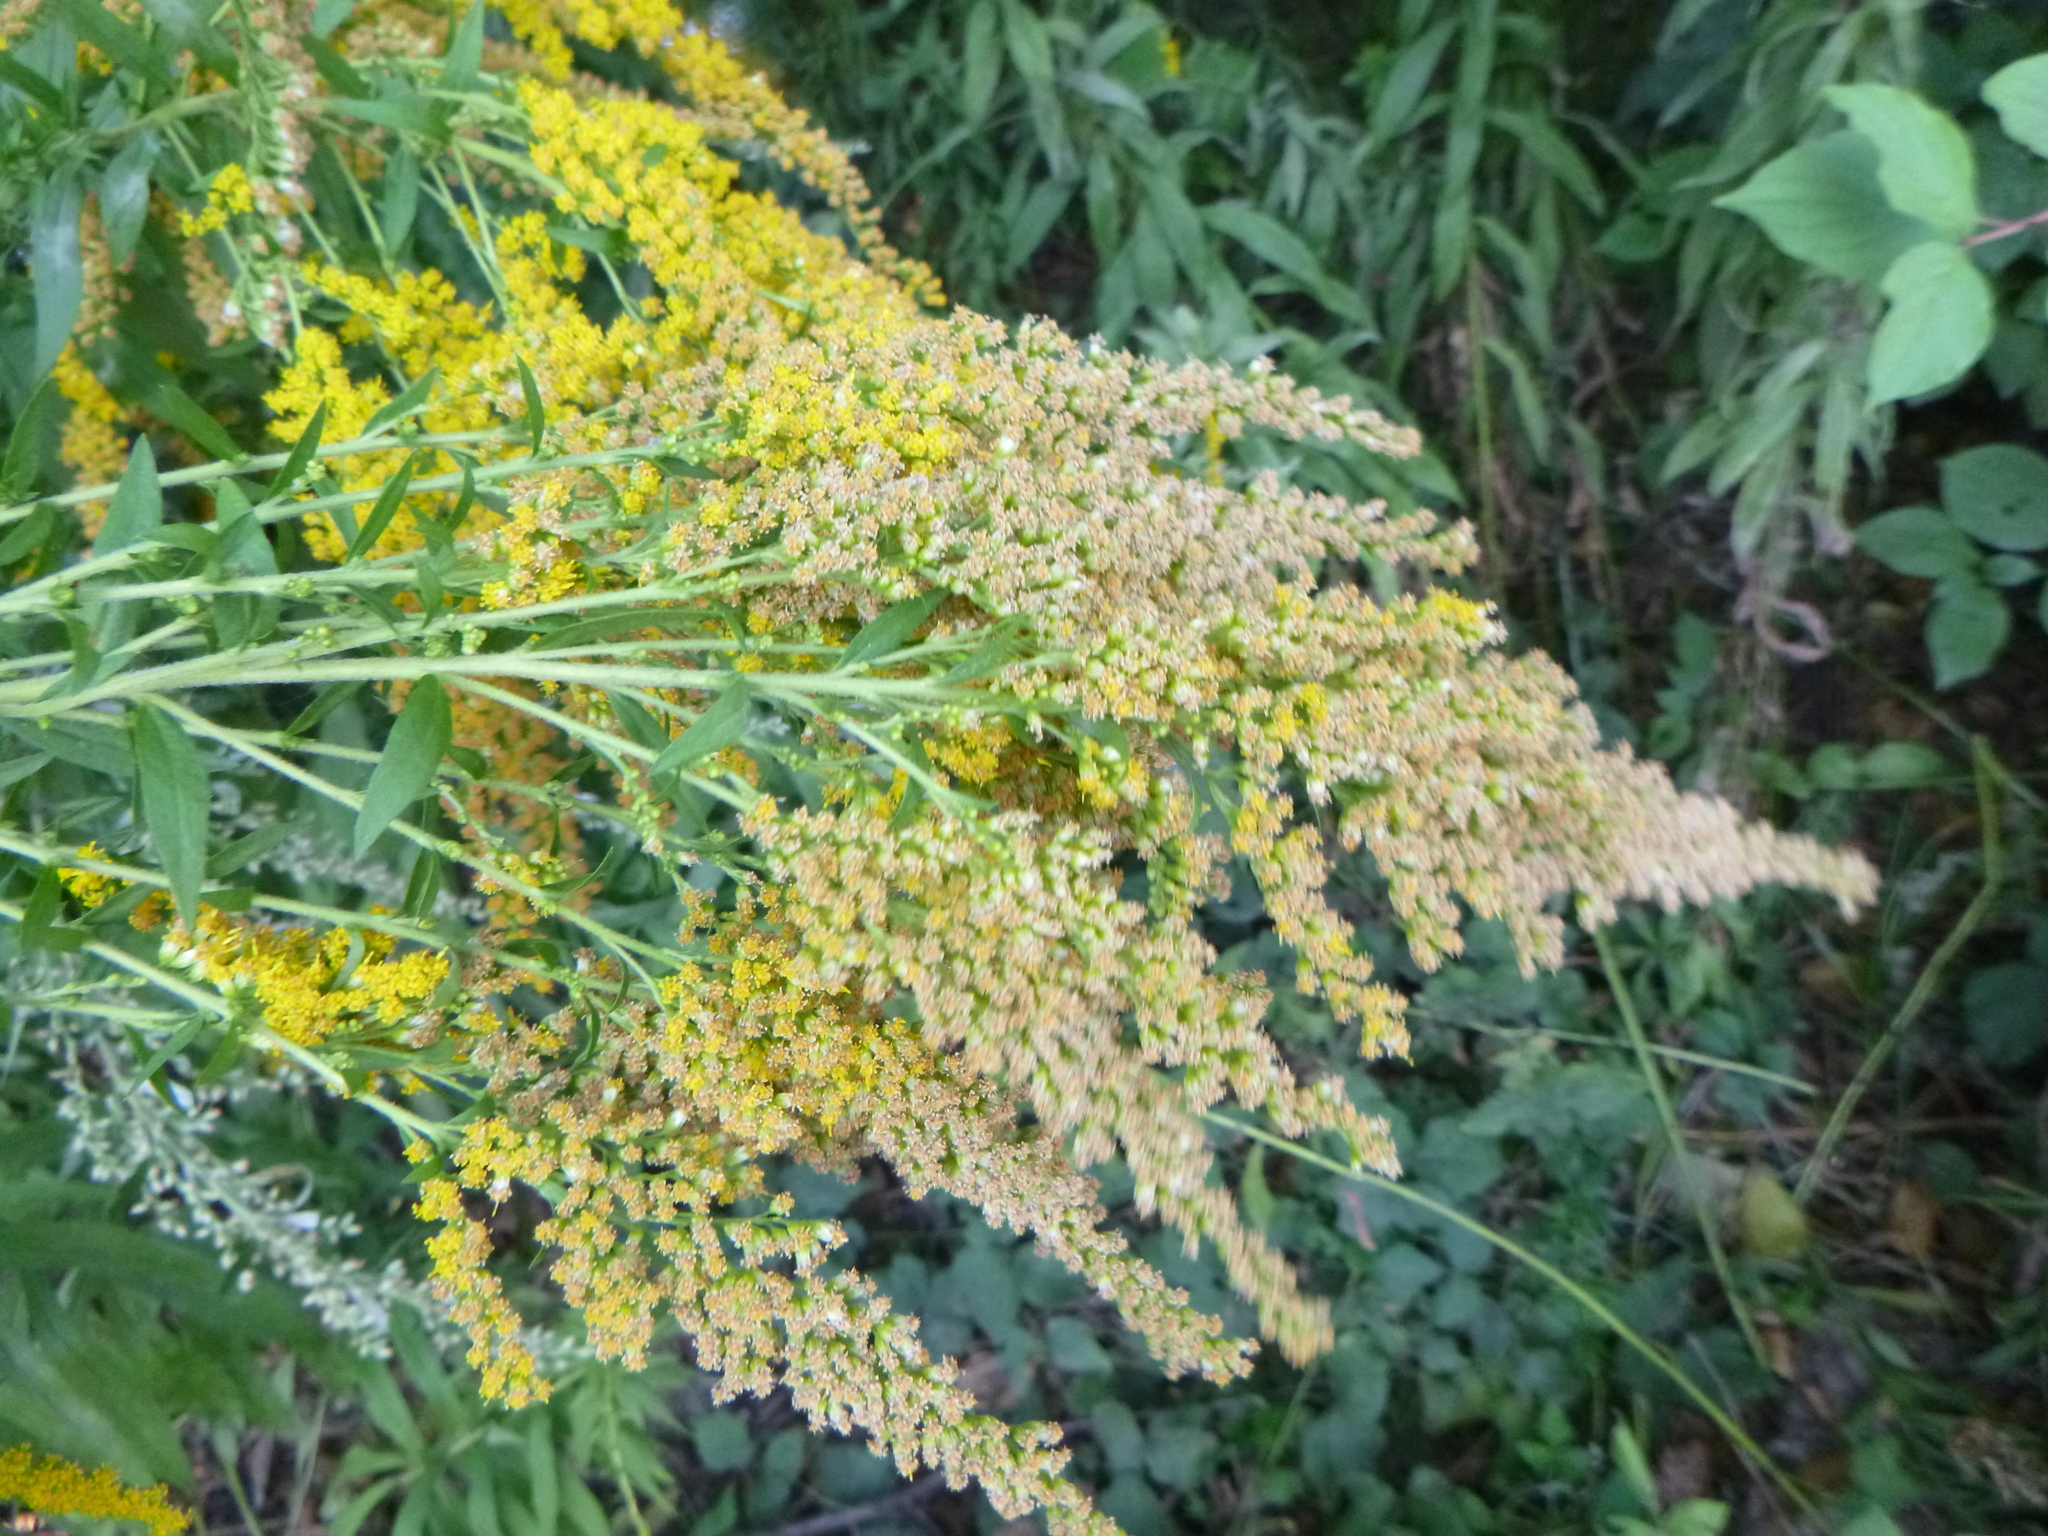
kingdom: Plantae
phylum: Tracheophyta
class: Magnoliopsida
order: Asterales
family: Asteraceae
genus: Solidago
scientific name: Solidago canadensis
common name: Canada goldenrod
